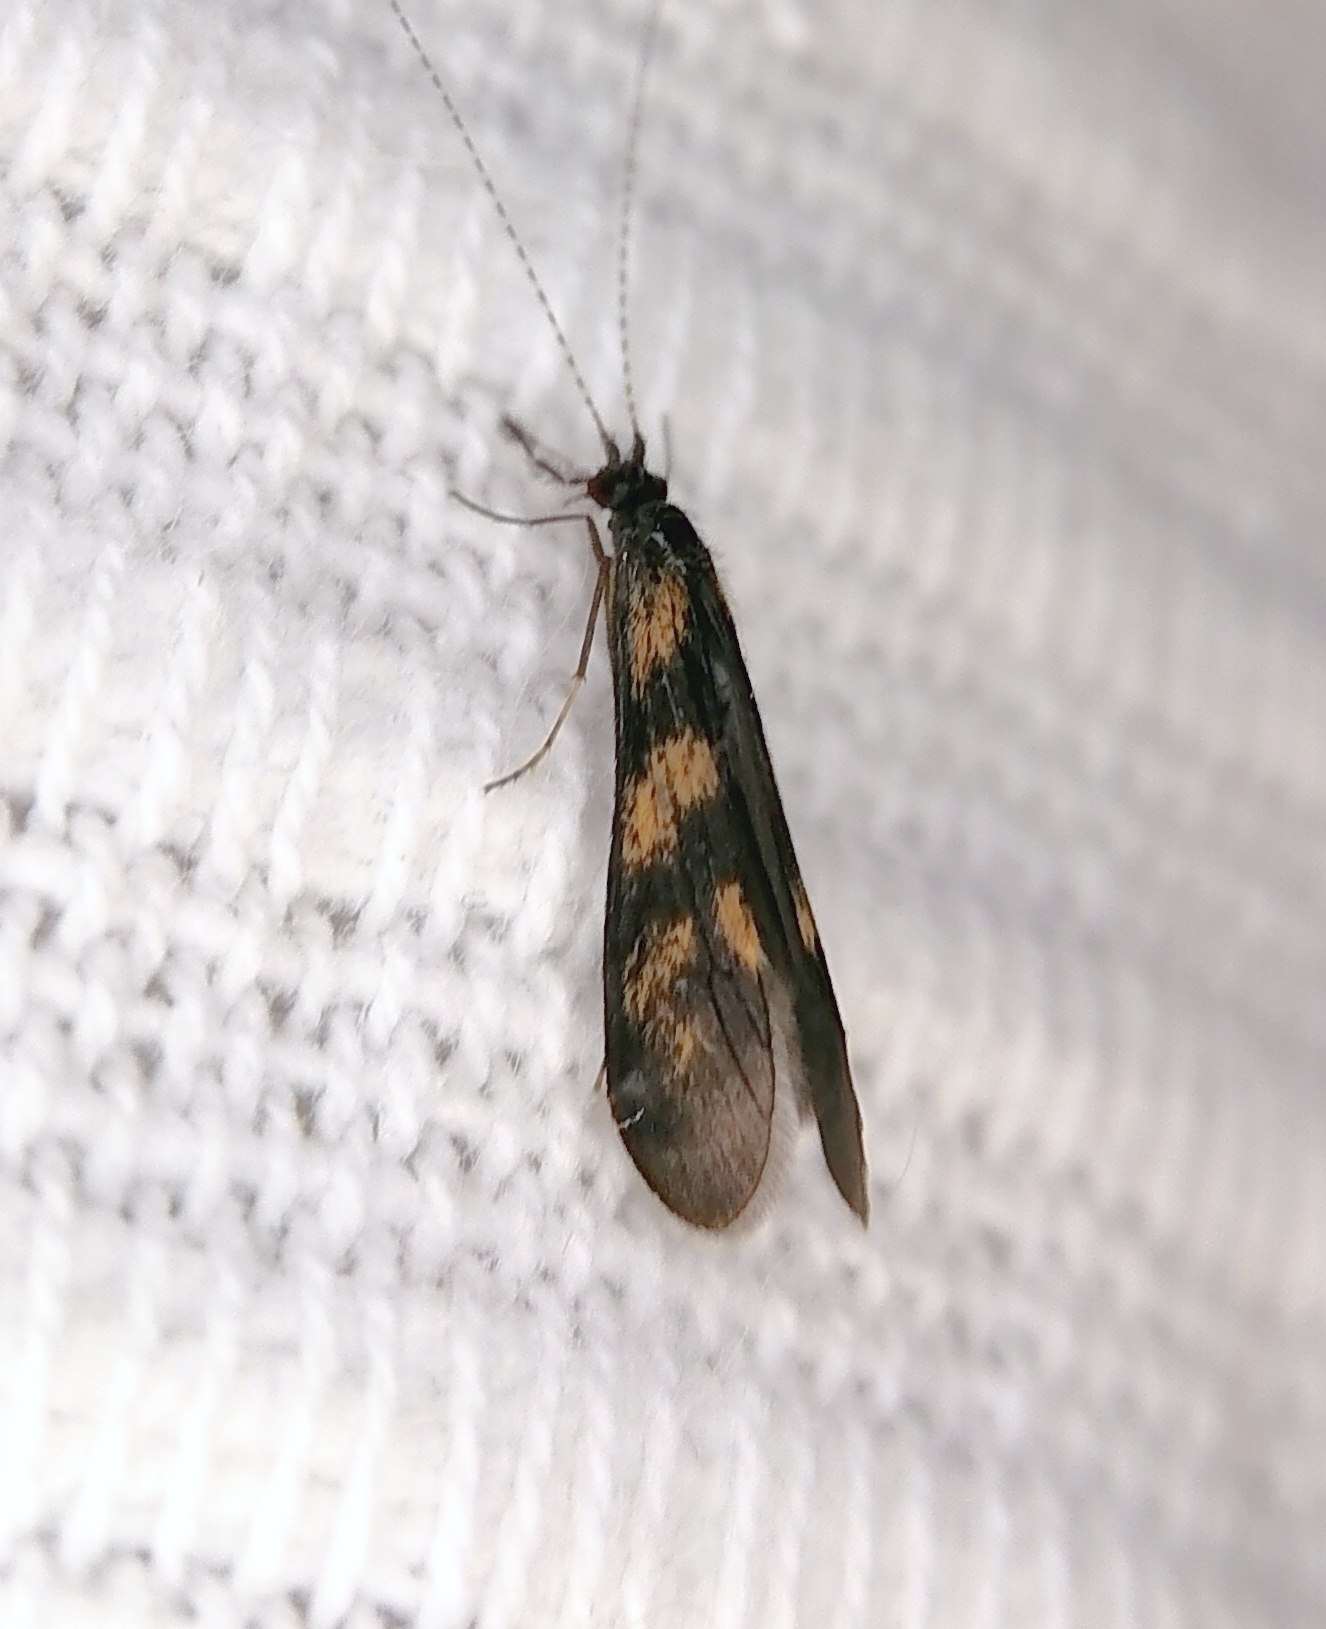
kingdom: Animalia
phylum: Arthropoda
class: Insecta
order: Trichoptera
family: Leptoceridae
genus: Mystacides
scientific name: Mystacides longicornis
